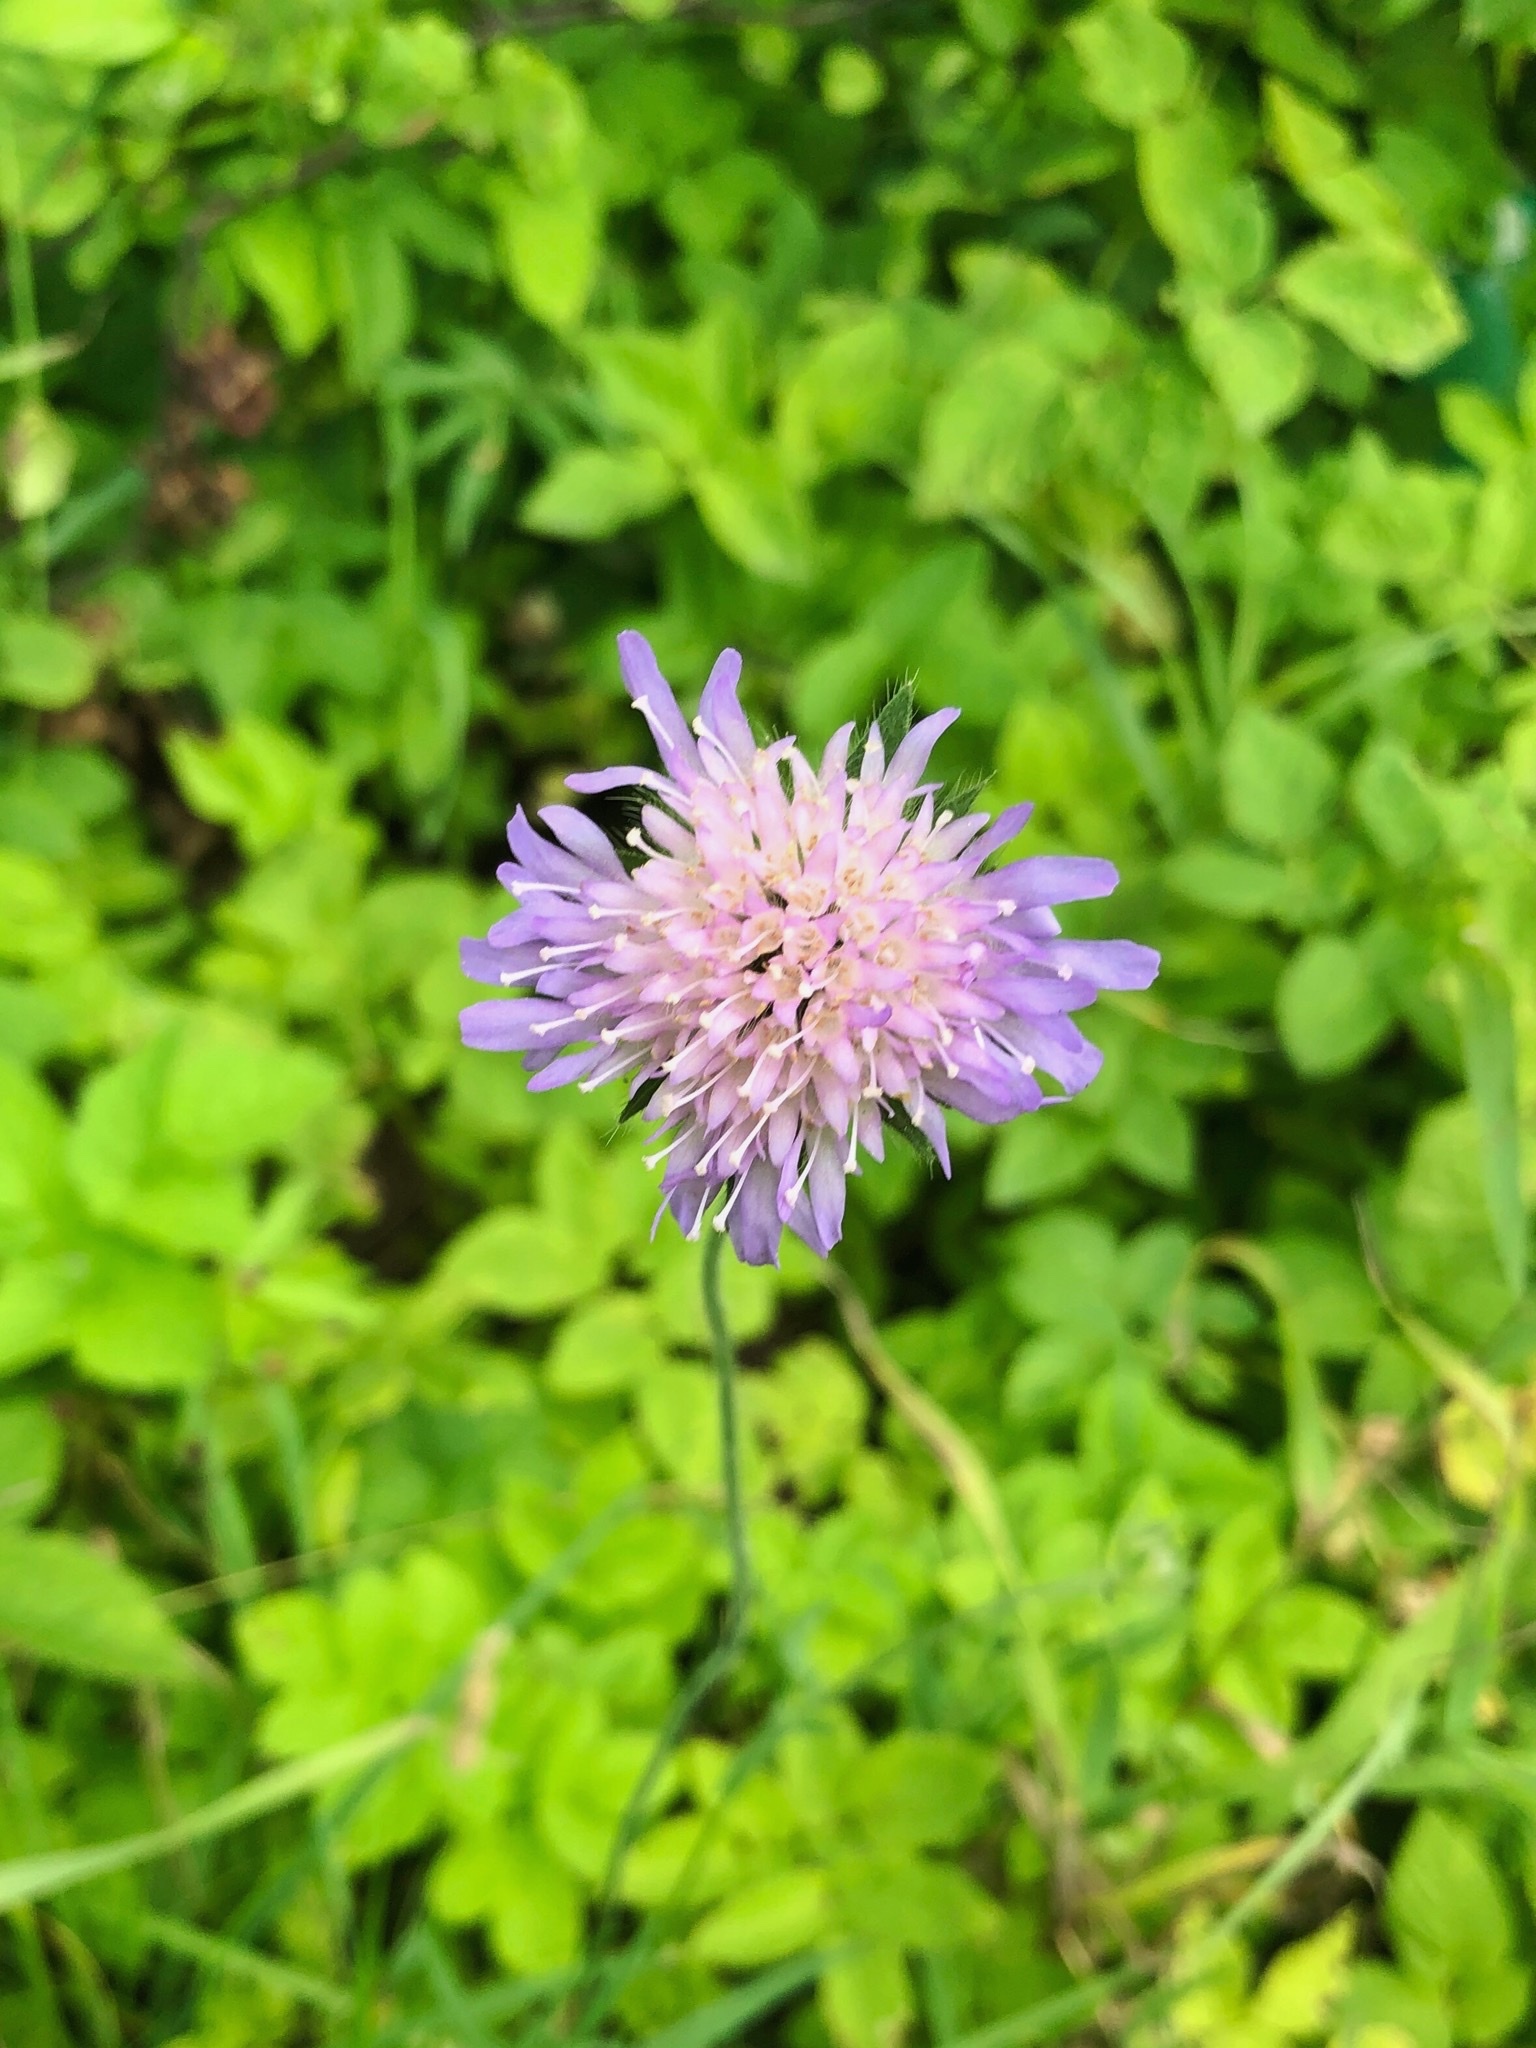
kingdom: Plantae
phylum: Tracheophyta
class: Magnoliopsida
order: Dipsacales
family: Caprifoliaceae
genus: Knautia
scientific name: Knautia arvensis
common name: Field scabiosa
